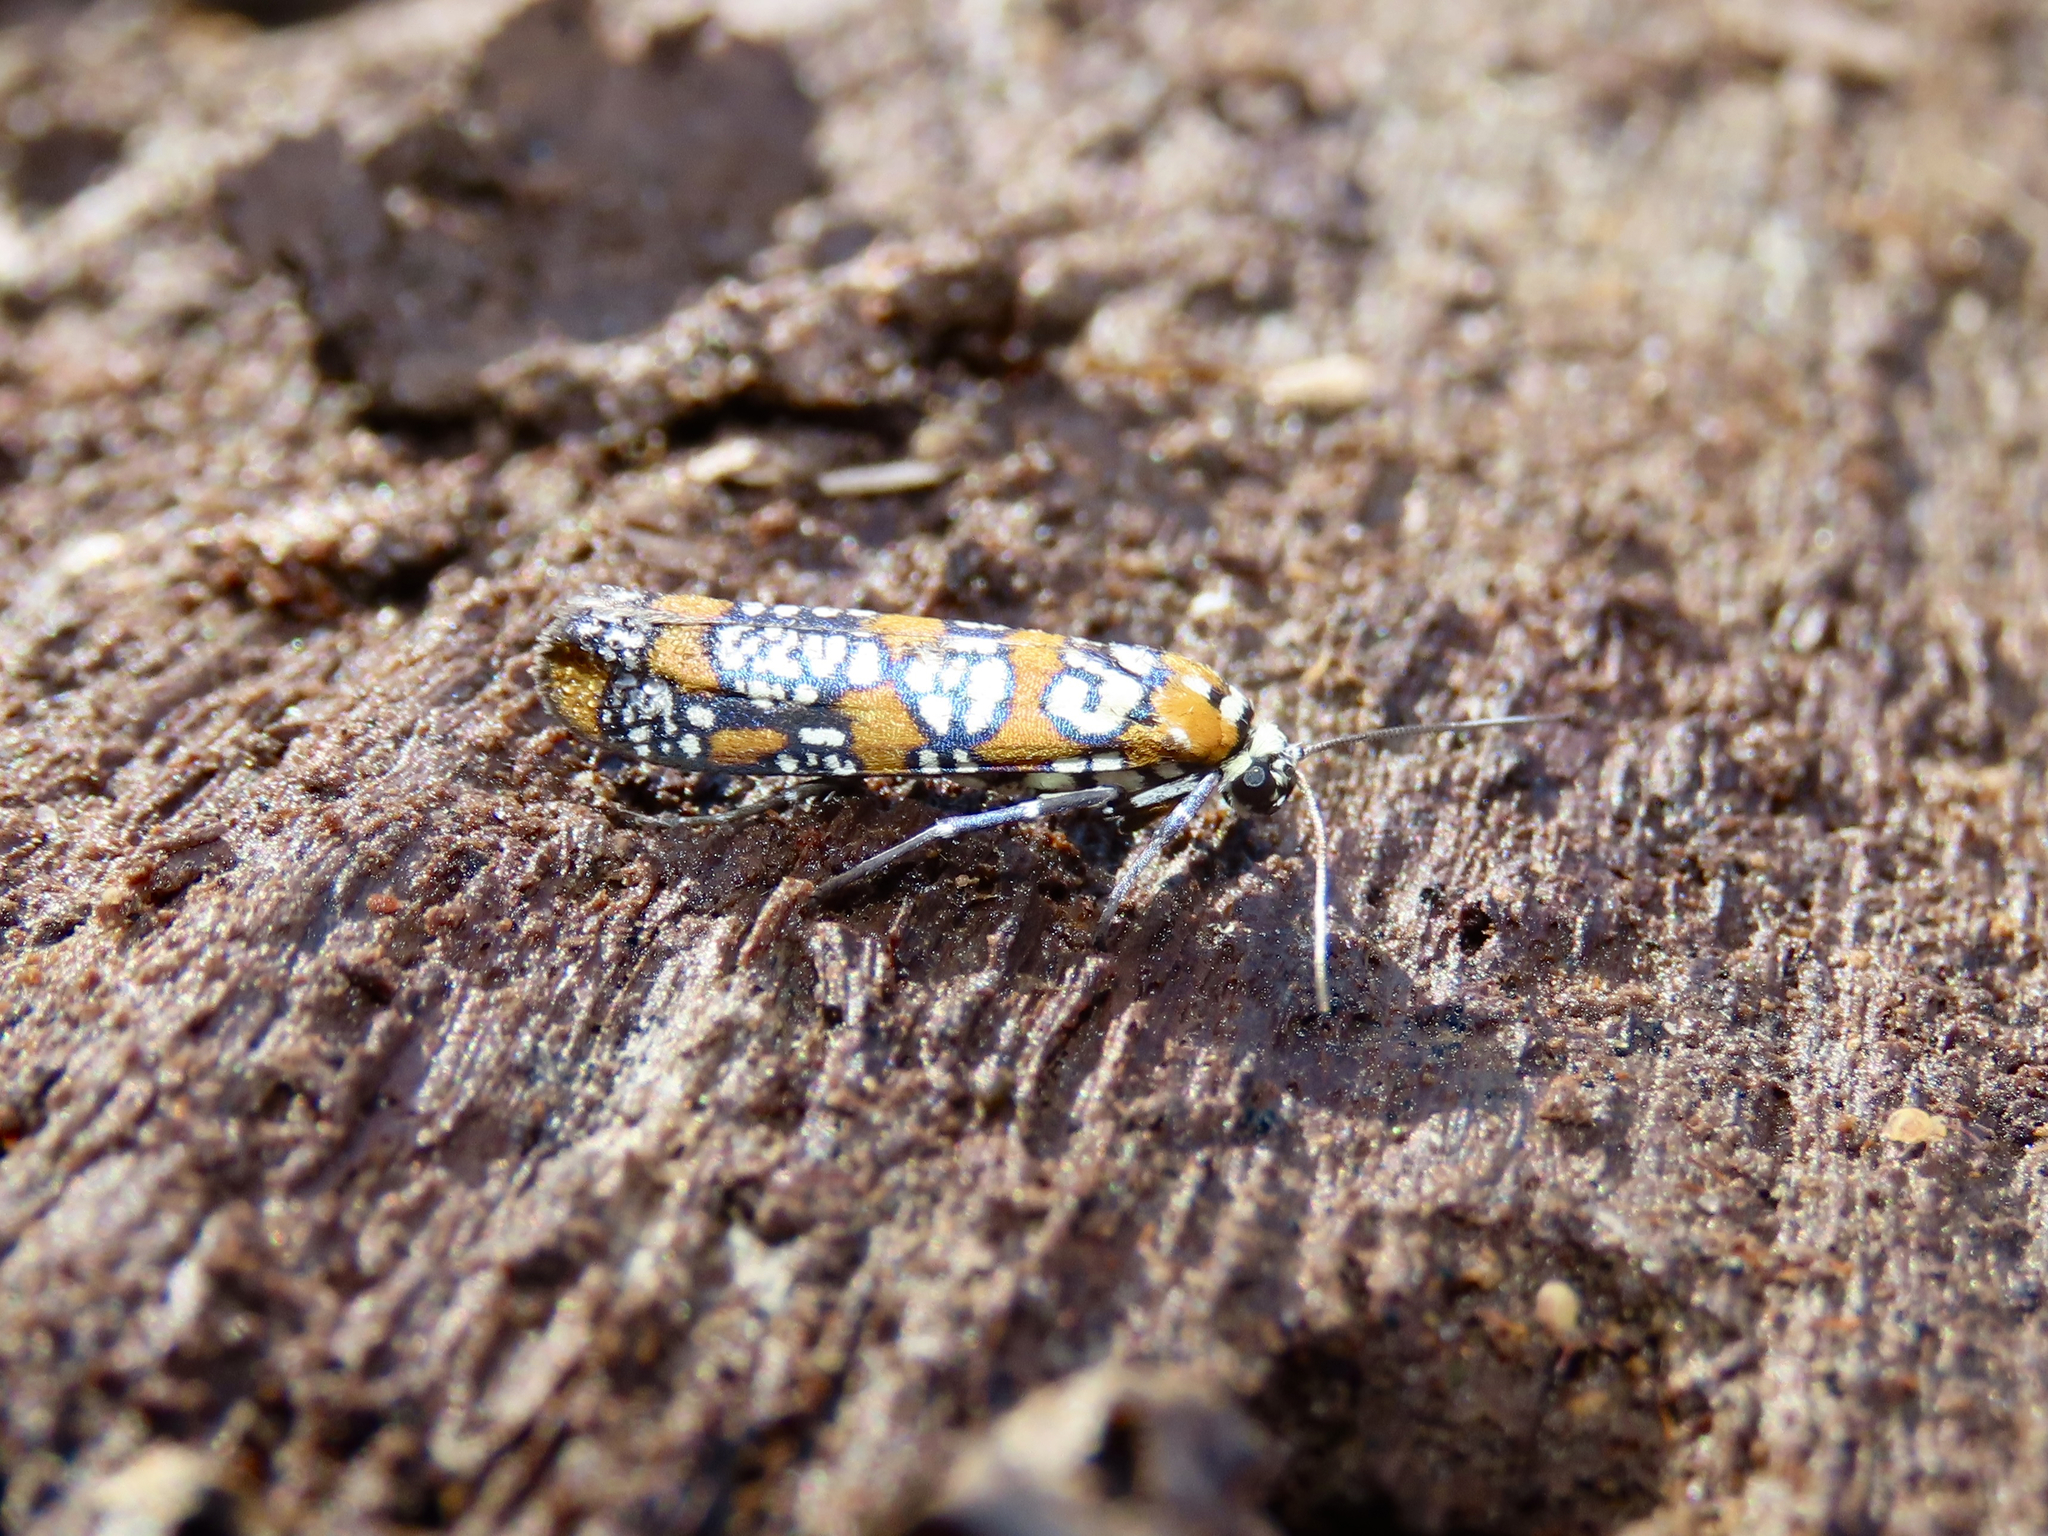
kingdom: Animalia
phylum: Arthropoda
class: Insecta
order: Lepidoptera
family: Attevidae
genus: Atteva
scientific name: Atteva punctella
